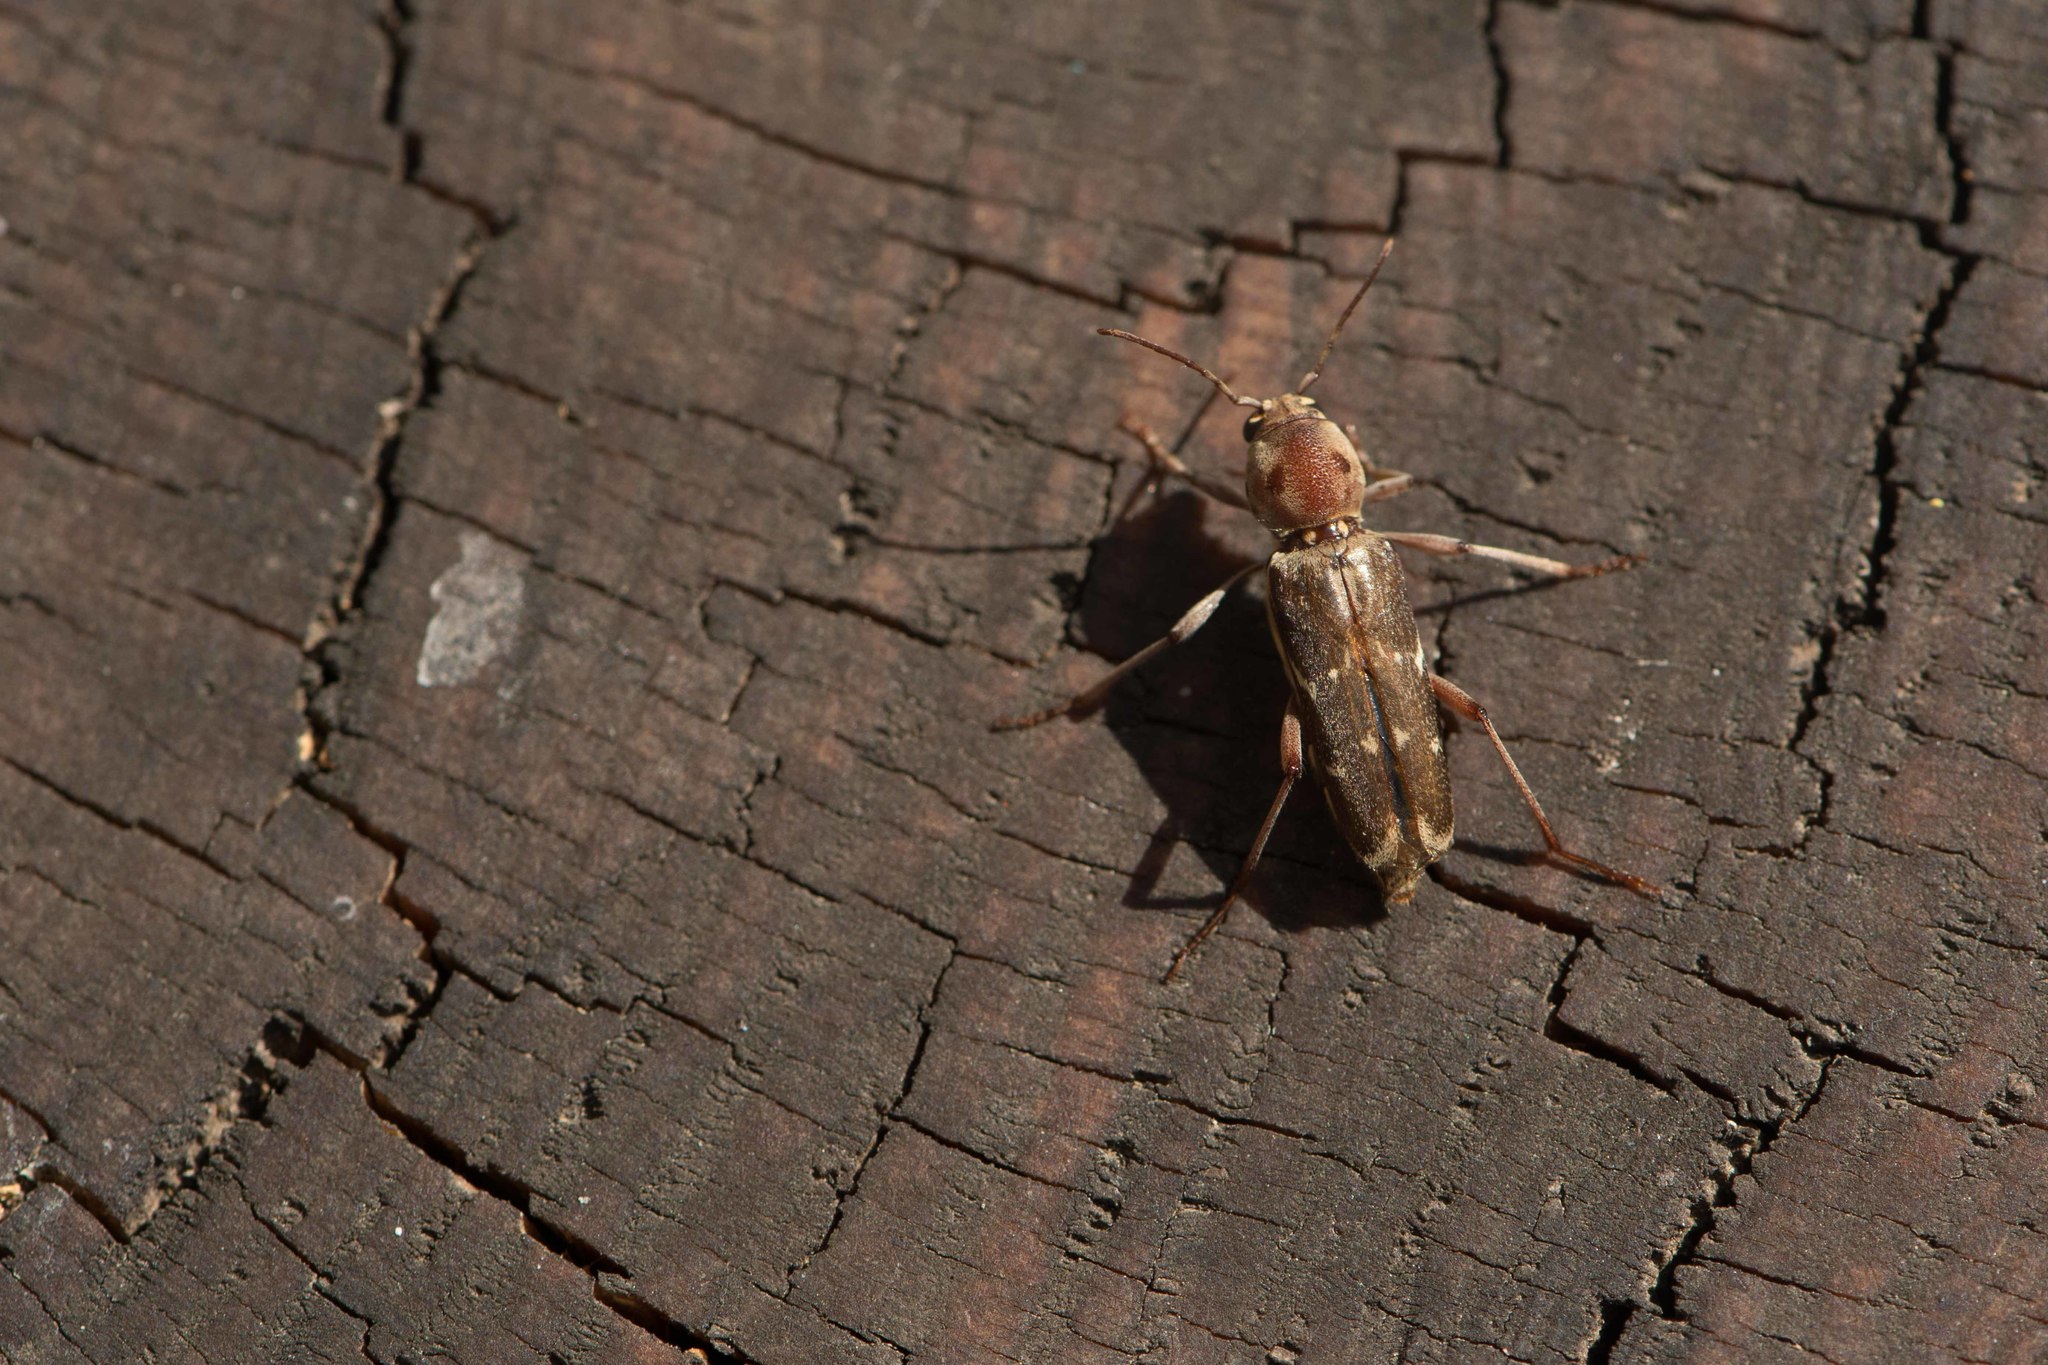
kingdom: Animalia
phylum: Arthropoda
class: Insecta
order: Coleoptera
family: Cerambycidae
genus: Xylotrechus
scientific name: Xylotrechus smei
